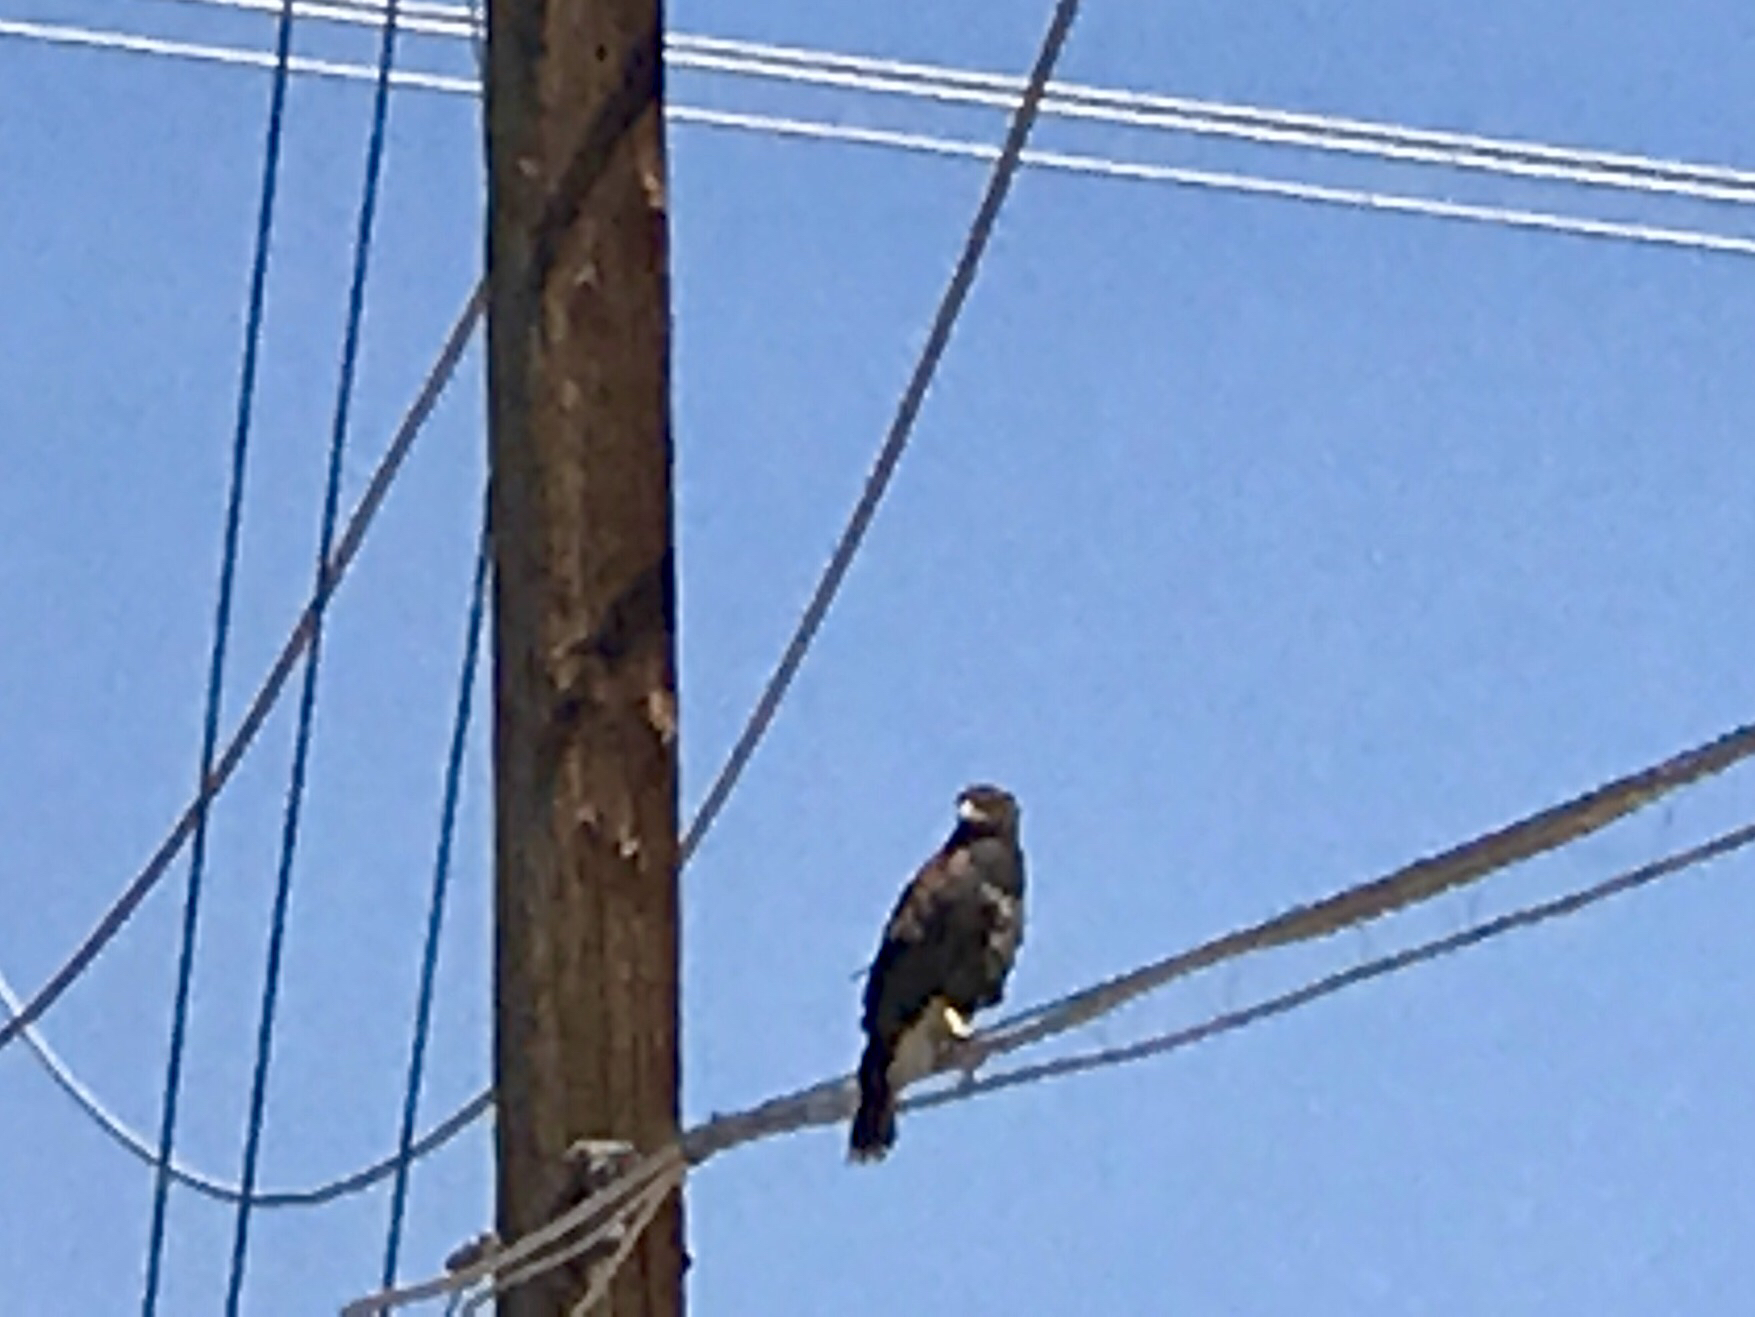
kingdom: Animalia
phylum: Chordata
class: Aves
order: Accipitriformes
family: Accipitridae
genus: Parabuteo
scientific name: Parabuteo unicinctus
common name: Harris's hawk
